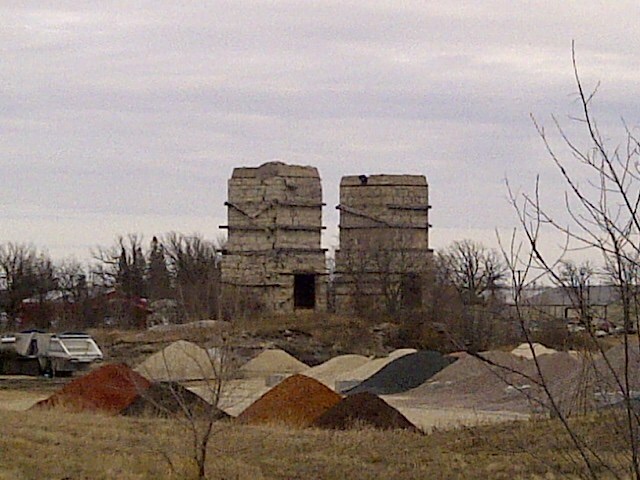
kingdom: Animalia
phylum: Chordata
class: Aves
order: Strigiformes
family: Strigidae
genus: Bubo
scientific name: Bubo virginianus
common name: Great horned owl
